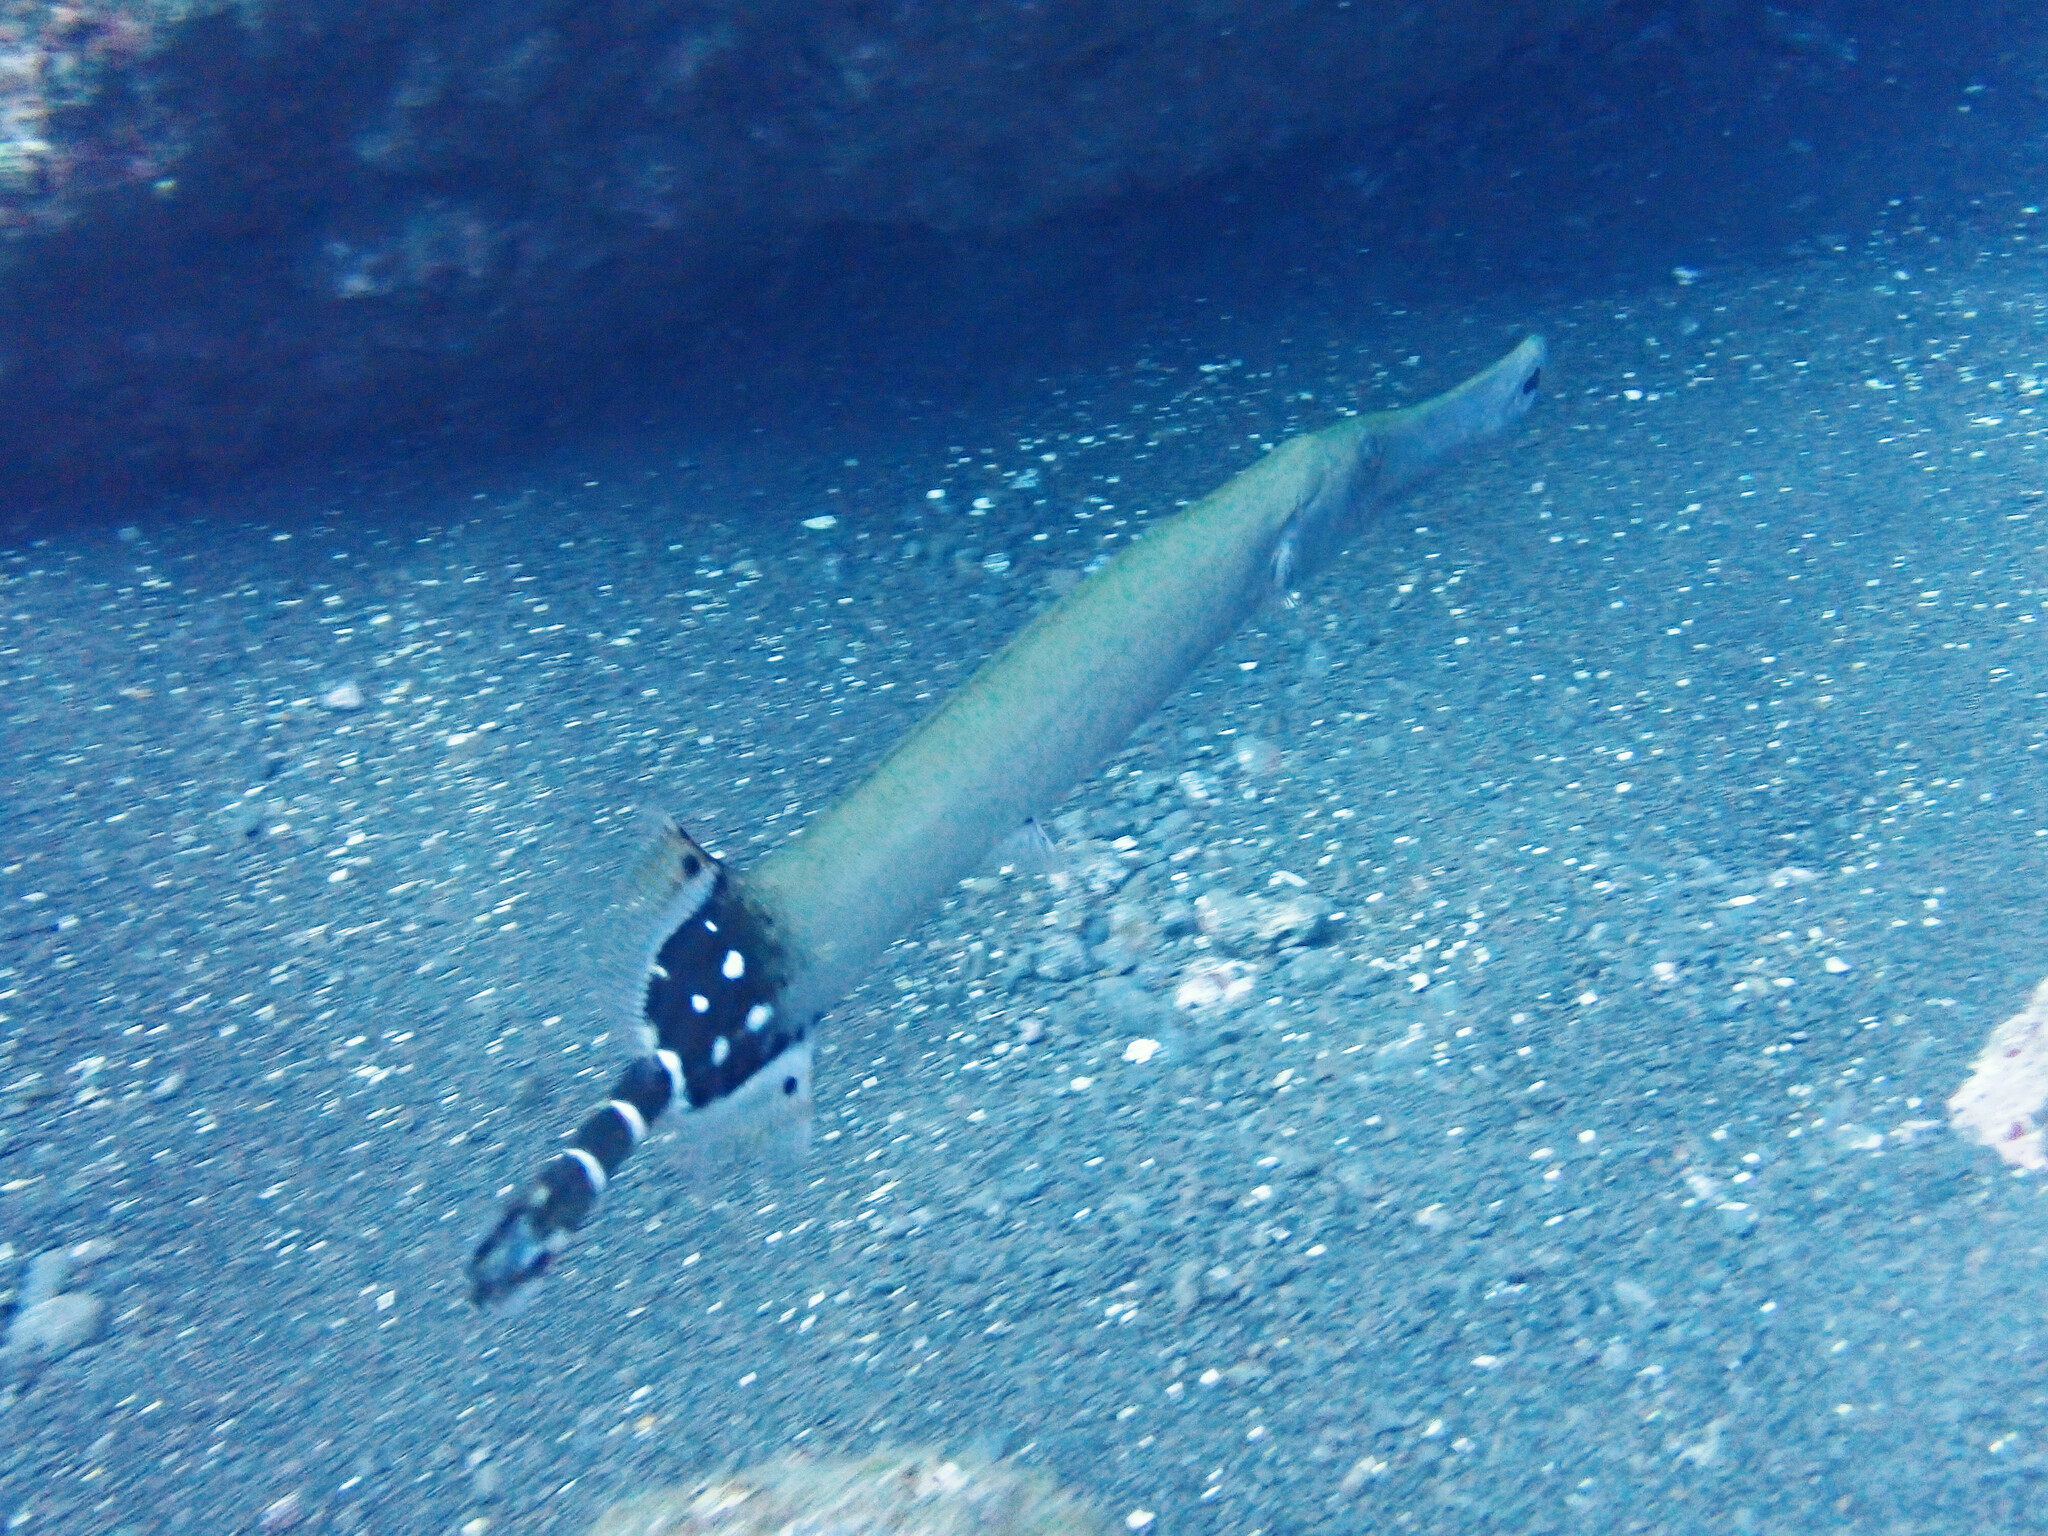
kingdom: Animalia
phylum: Chordata
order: Syngnathiformes
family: Aulostomidae
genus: Aulostomus
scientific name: Aulostomus strigosus
